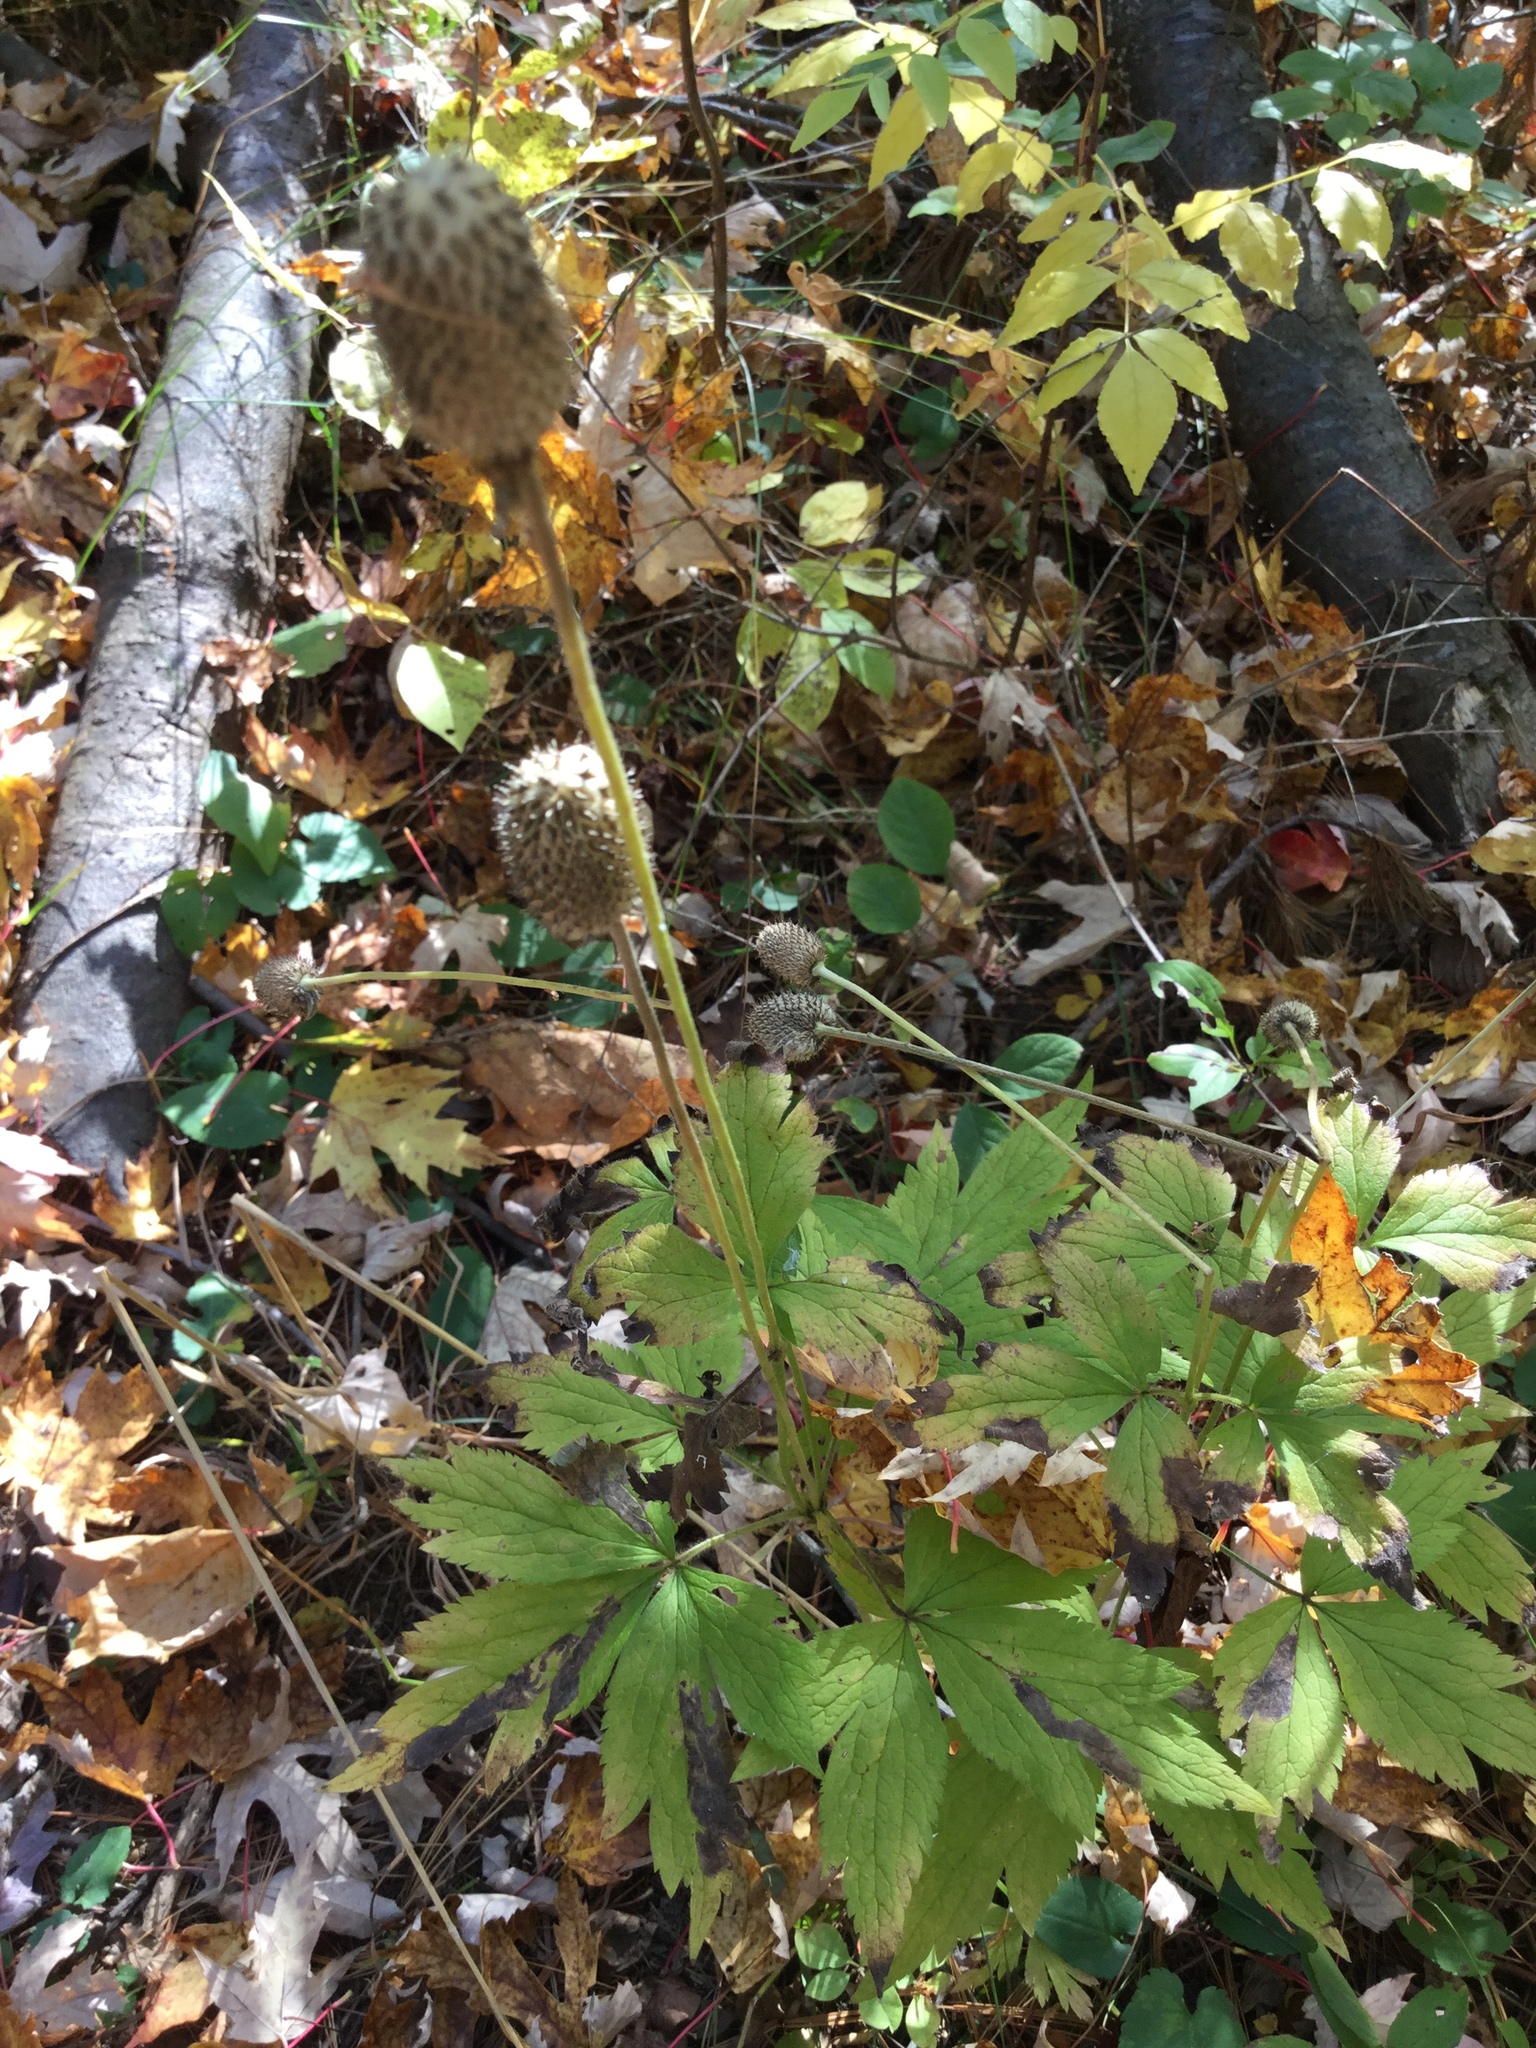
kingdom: Plantae
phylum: Tracheophyta
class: Magnoliopsida
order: Ranunculales
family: Ranunculaceae
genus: Anemone
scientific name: Anemone virginiana
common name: Tall anemone
